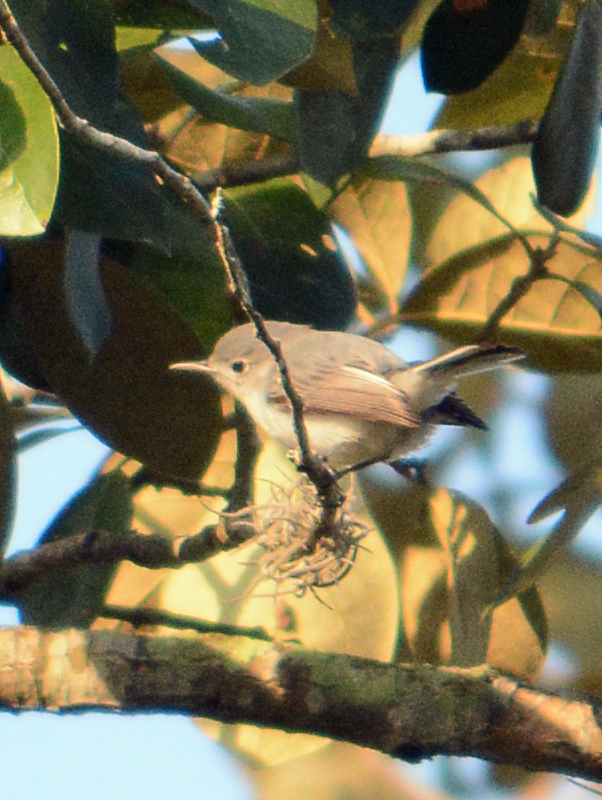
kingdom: Animalia
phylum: Chordata
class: Aves
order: Passeriformes
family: Polioptilidae
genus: Polioptila
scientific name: Polioptila caerulea
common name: Blue-gray gnatcatcher
